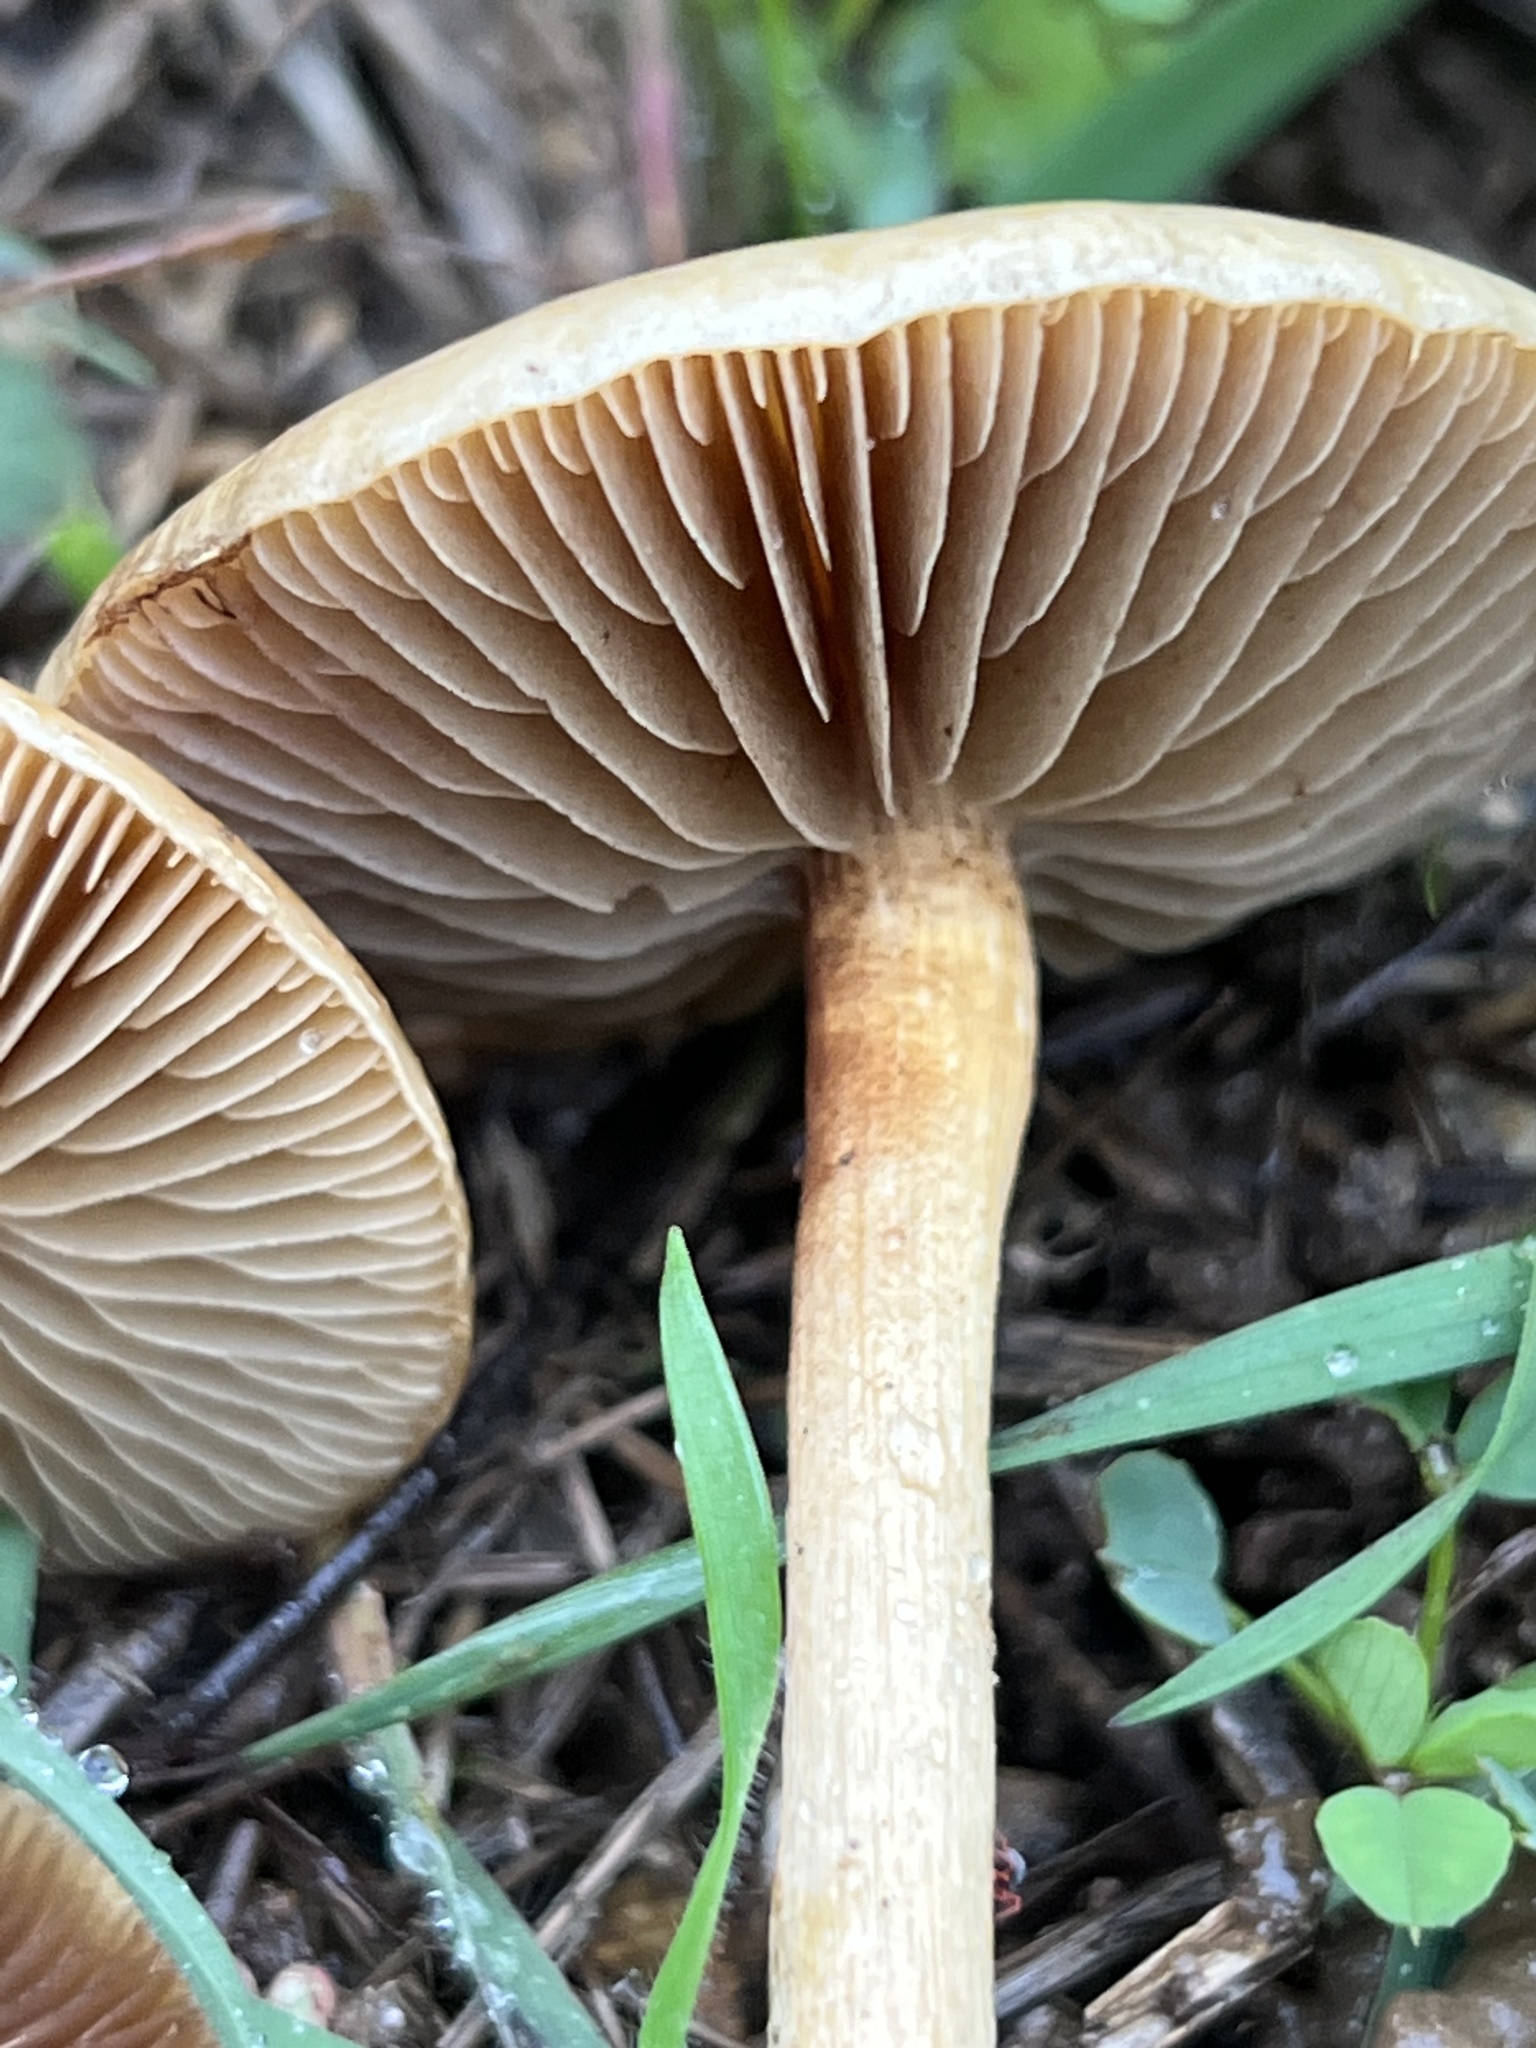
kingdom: Fungi
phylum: Basidiomycota
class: Agaricomycetes
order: Agaricales
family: Strophariaceae
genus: Agrocybe
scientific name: Agrocybe pediades
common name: Common fieldcap
